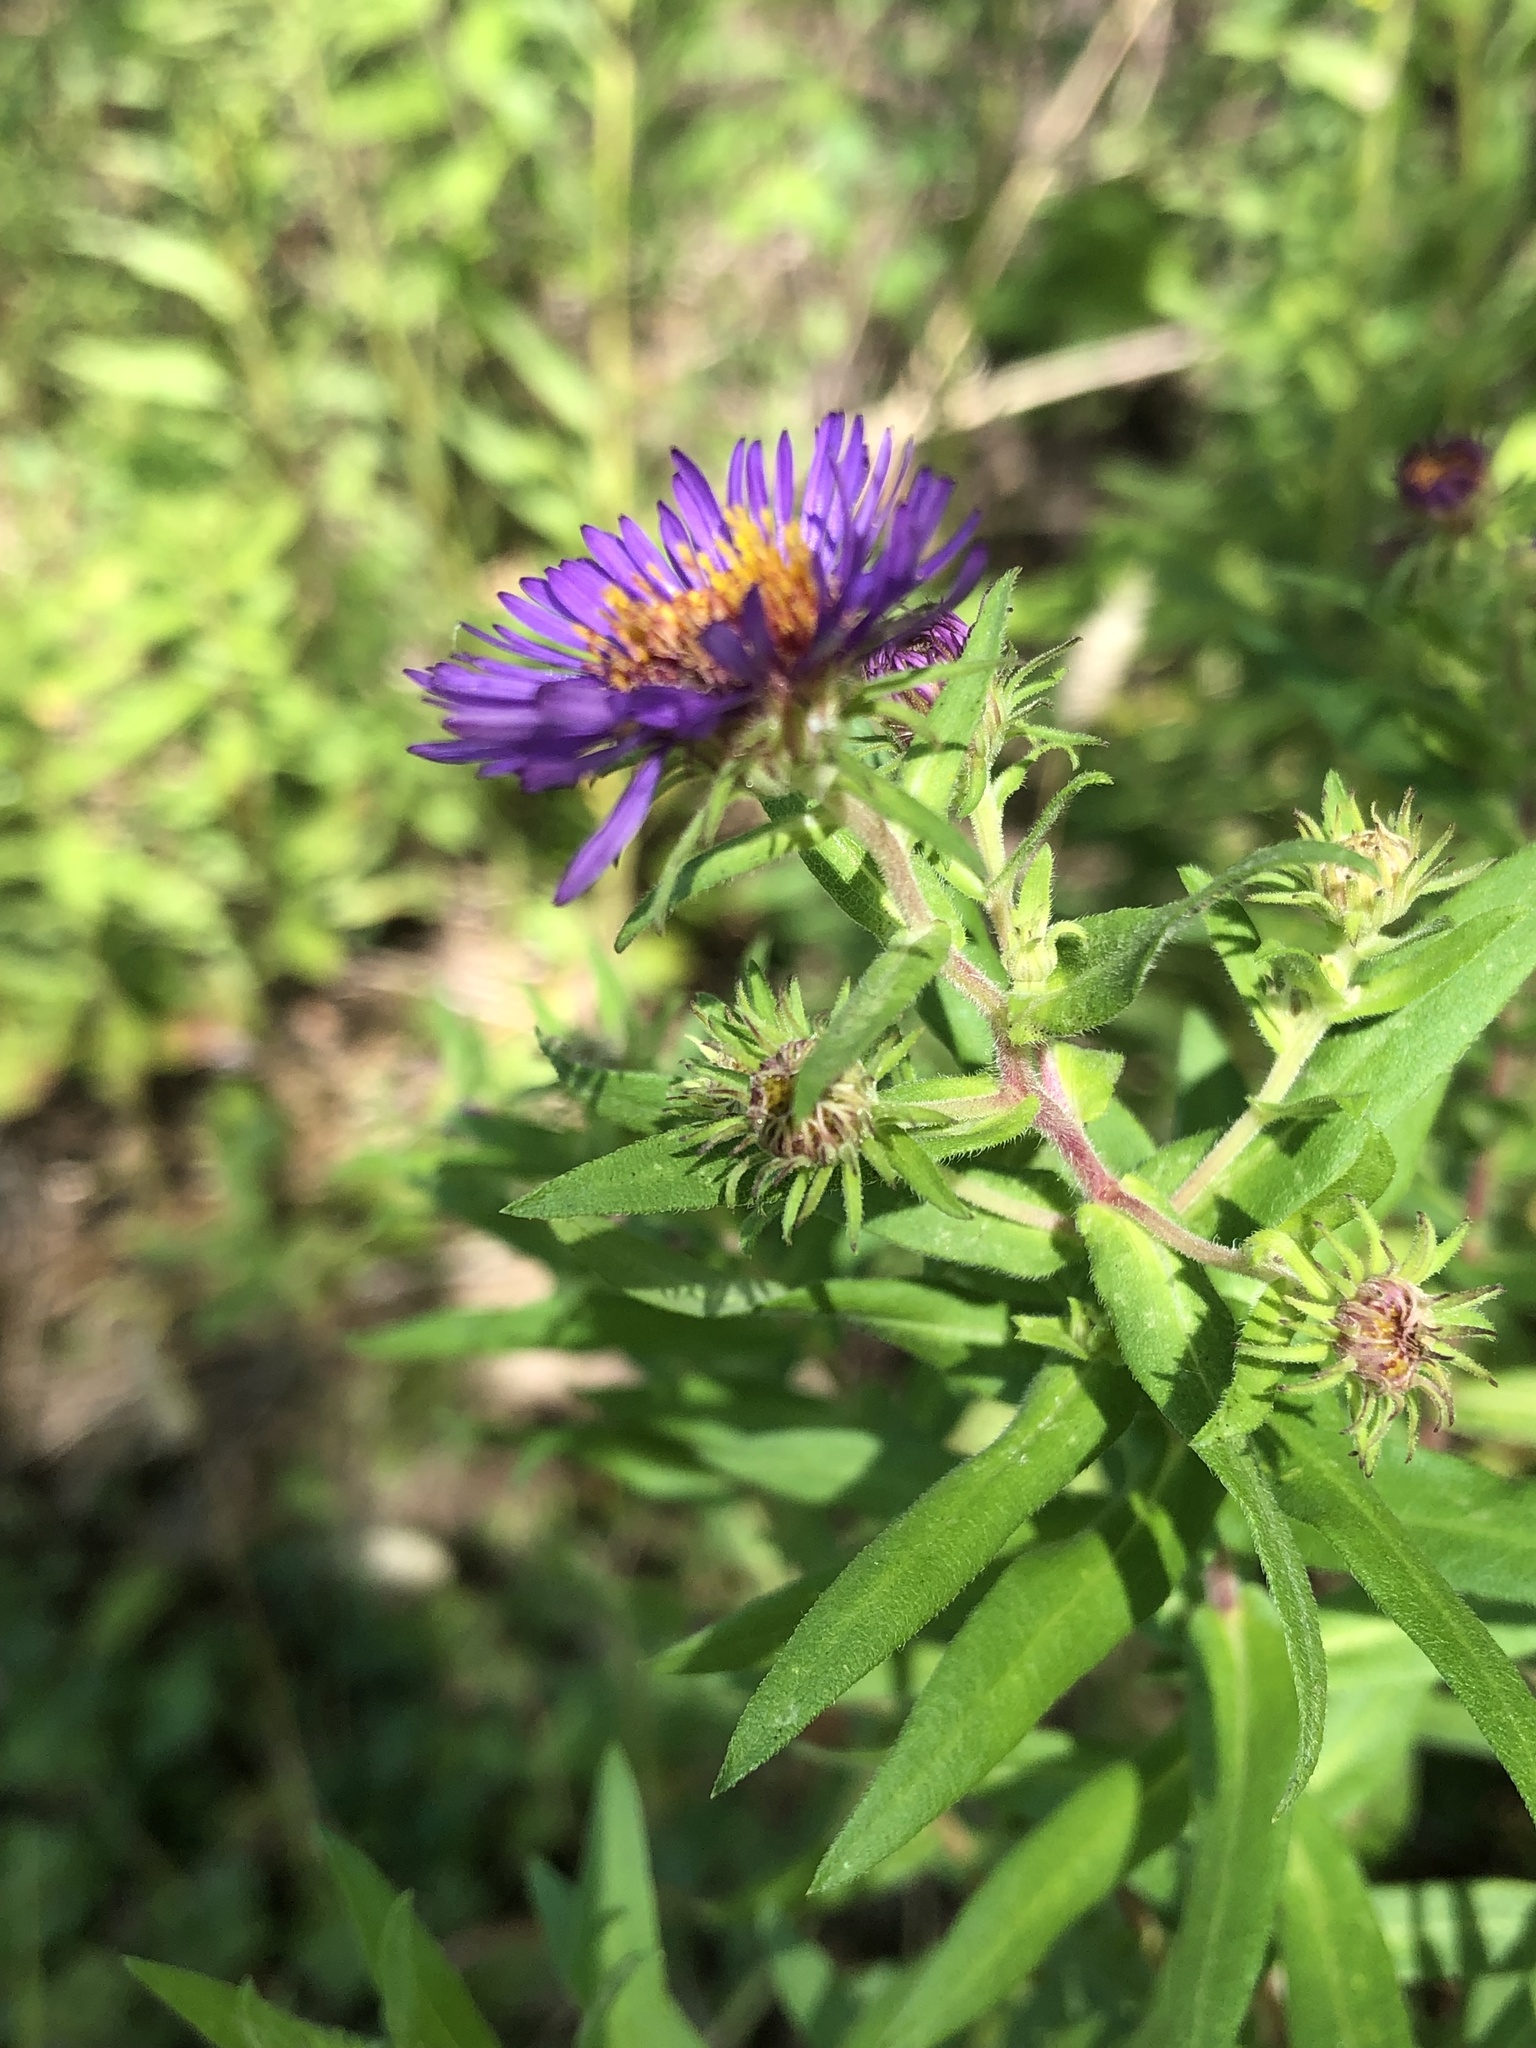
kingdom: Plantae
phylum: Tracheophyta
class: Magnoliopsida
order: Asterales
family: Asteraceae
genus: Symphyotrichum
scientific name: Symphyotrichum novae-angliae
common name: Michaelmas daisy
